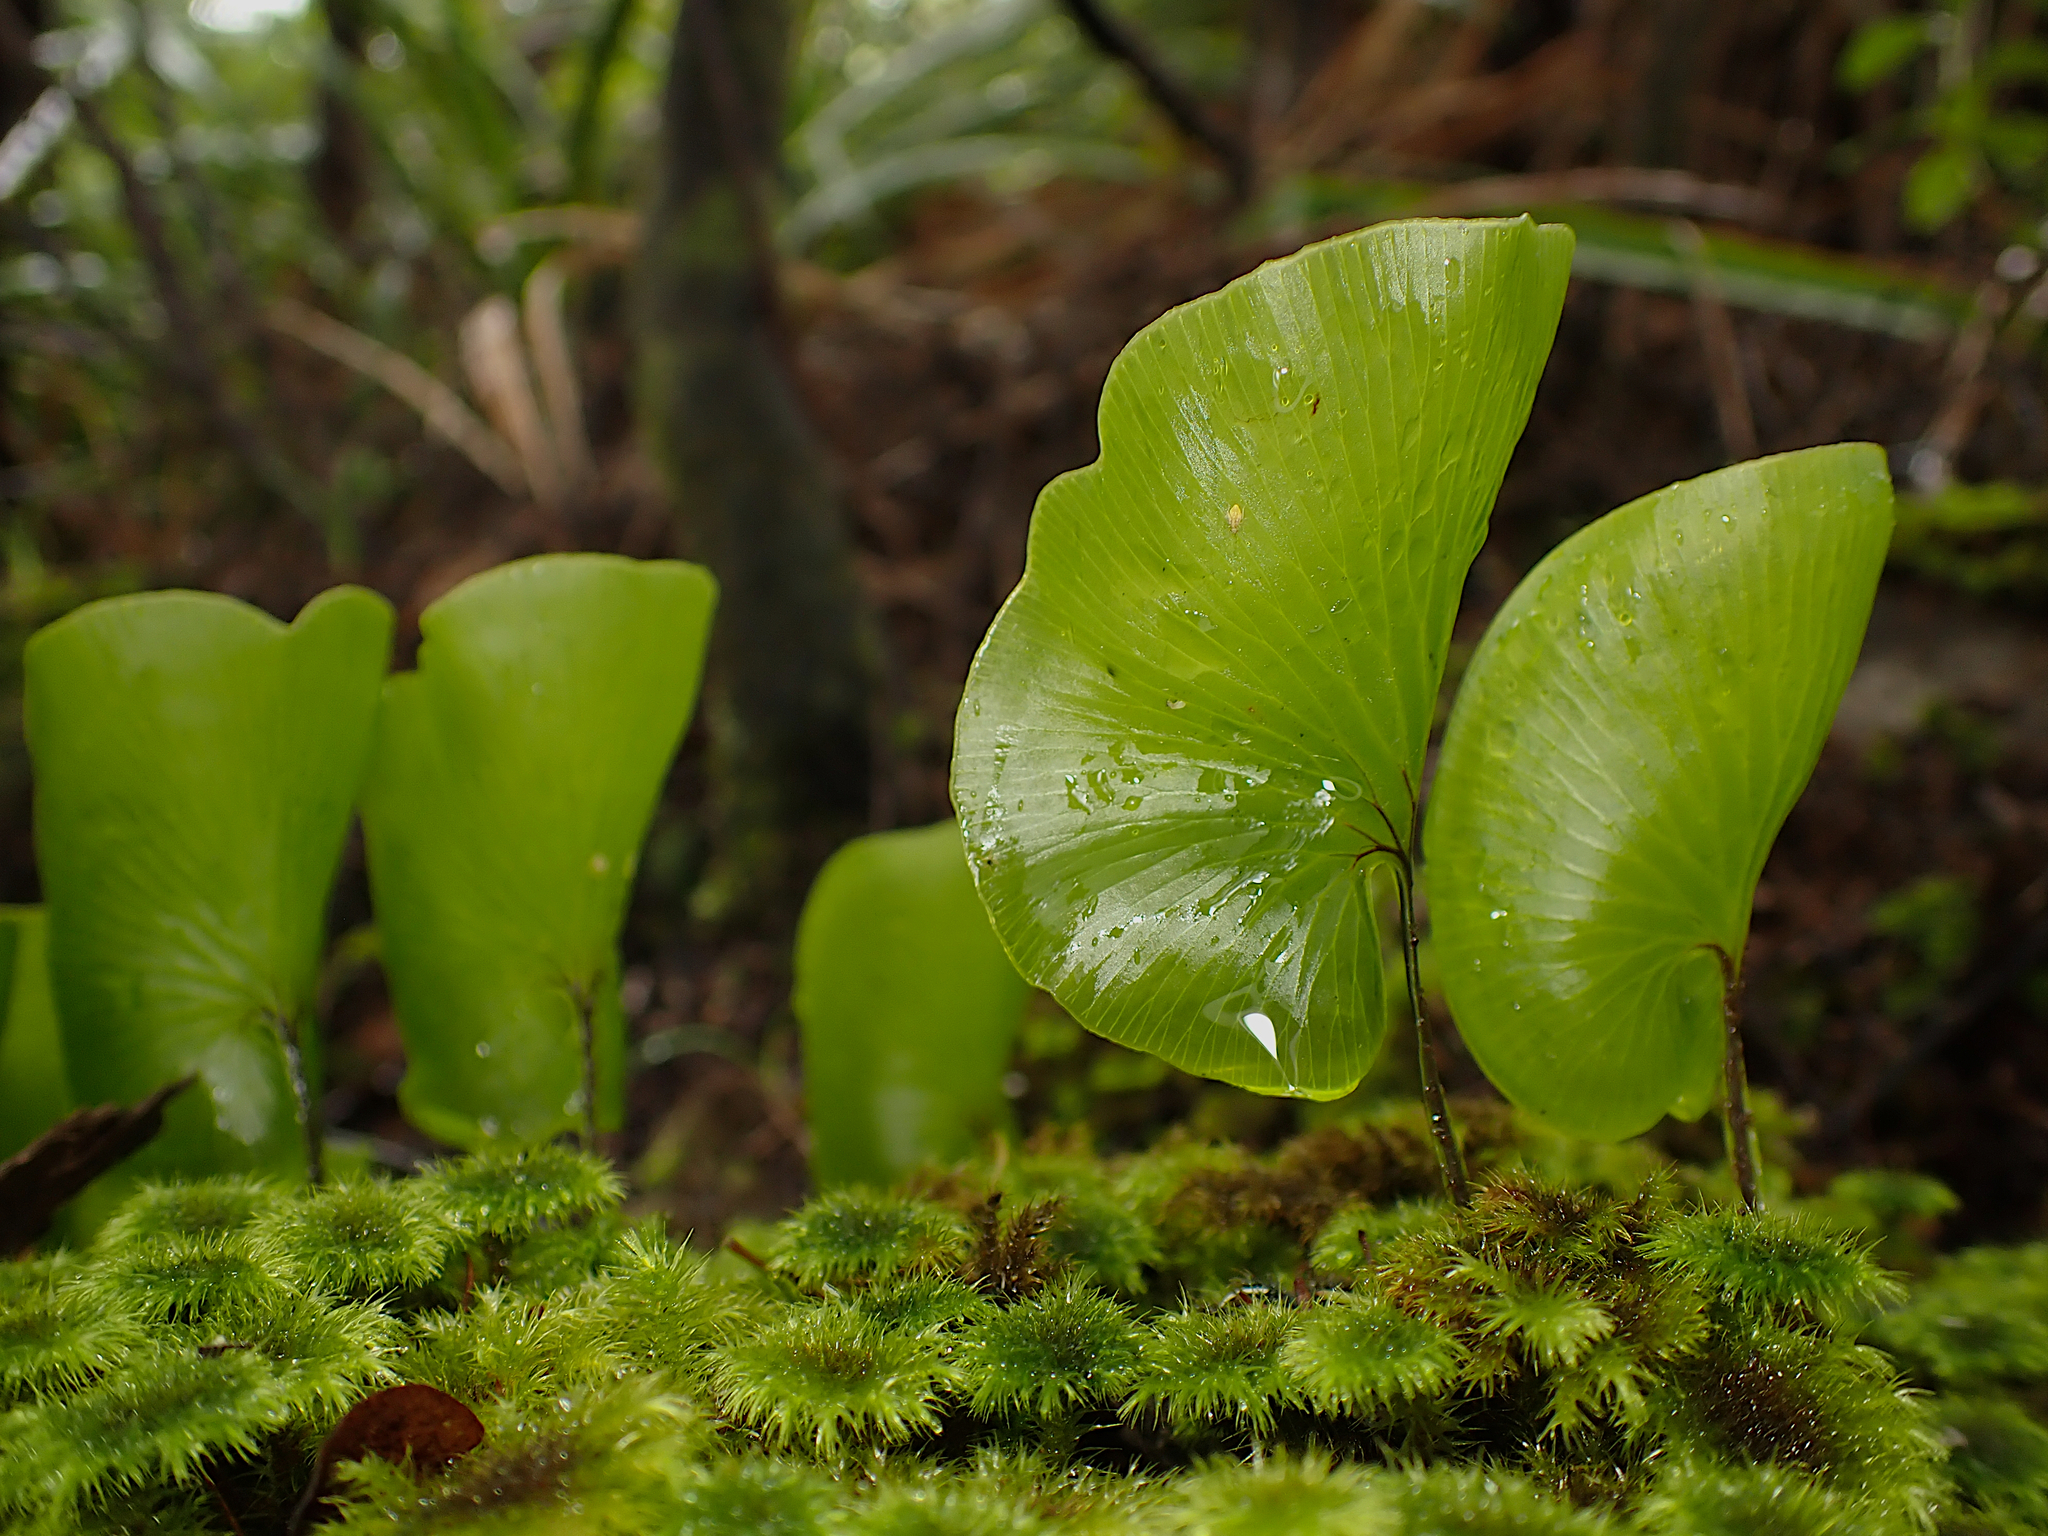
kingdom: Plantae
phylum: Tracheophyta
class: Polypodiopsida
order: Hymenophyllales
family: Hymenophyllaceae
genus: Hymenophyllum
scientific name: Hymenophyllum nephrophyllum
